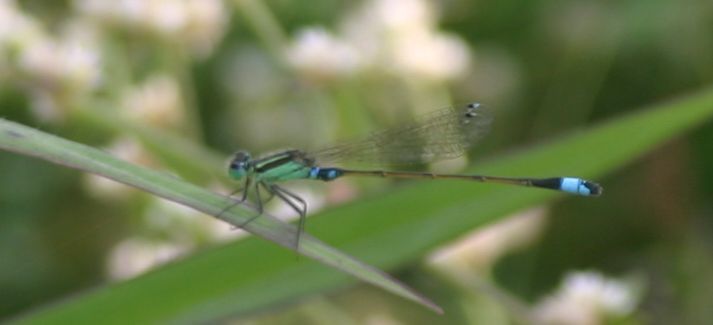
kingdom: Animalia
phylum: Arthropoda
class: Insecta
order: Odonata
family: Coenagrionidae
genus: Ischnura
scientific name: Ischnura senegalensis
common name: Tropical bluetail
